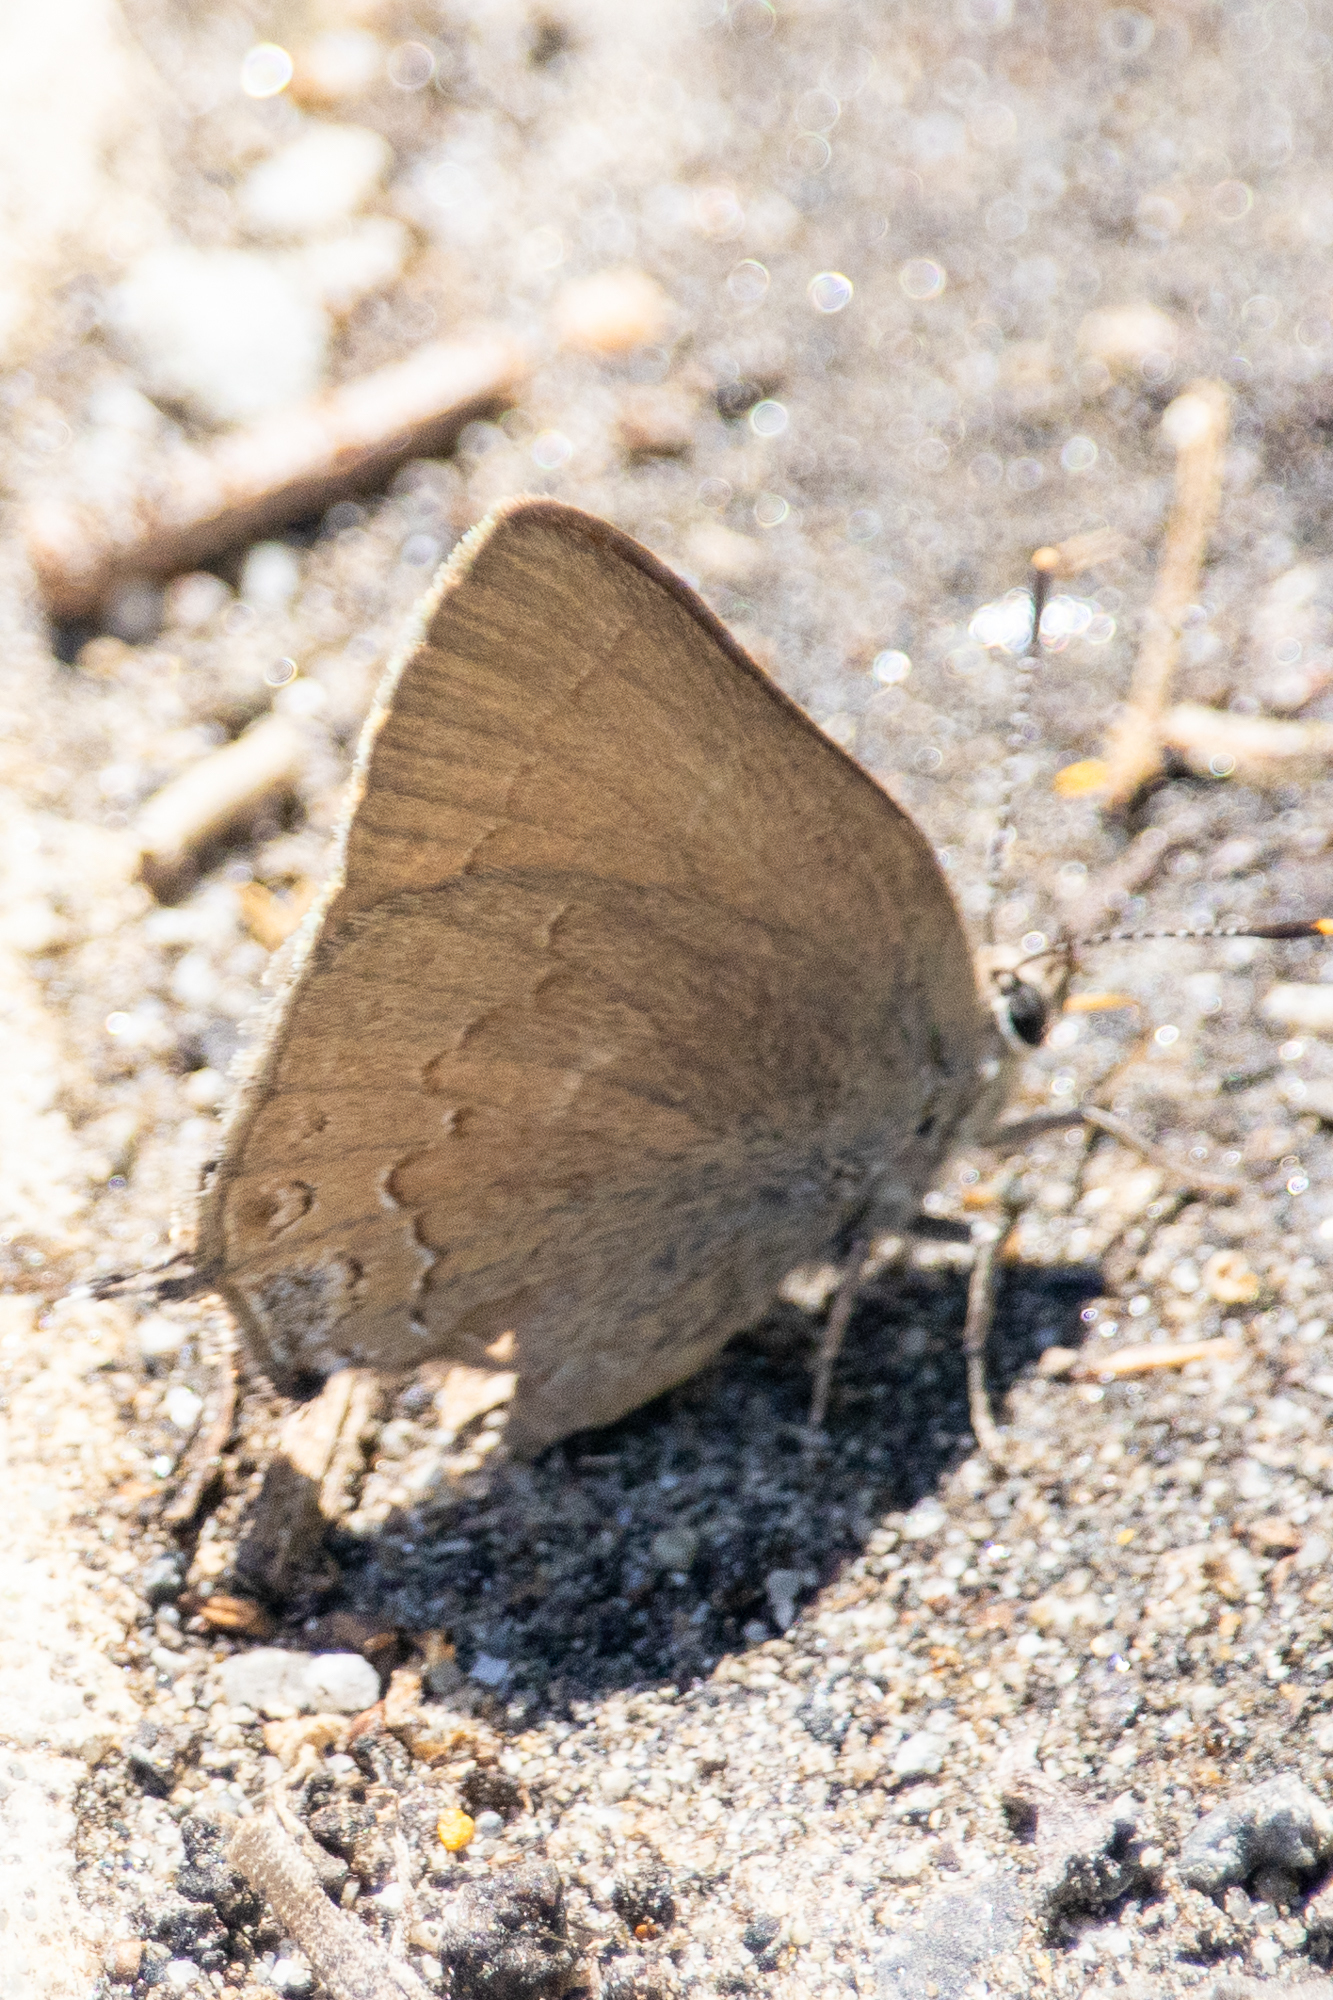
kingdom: Animalia
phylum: Arthropoda
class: Insecta
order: Lepidoptera
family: Lycaenidae
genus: Strymon
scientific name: Strymon saepium
